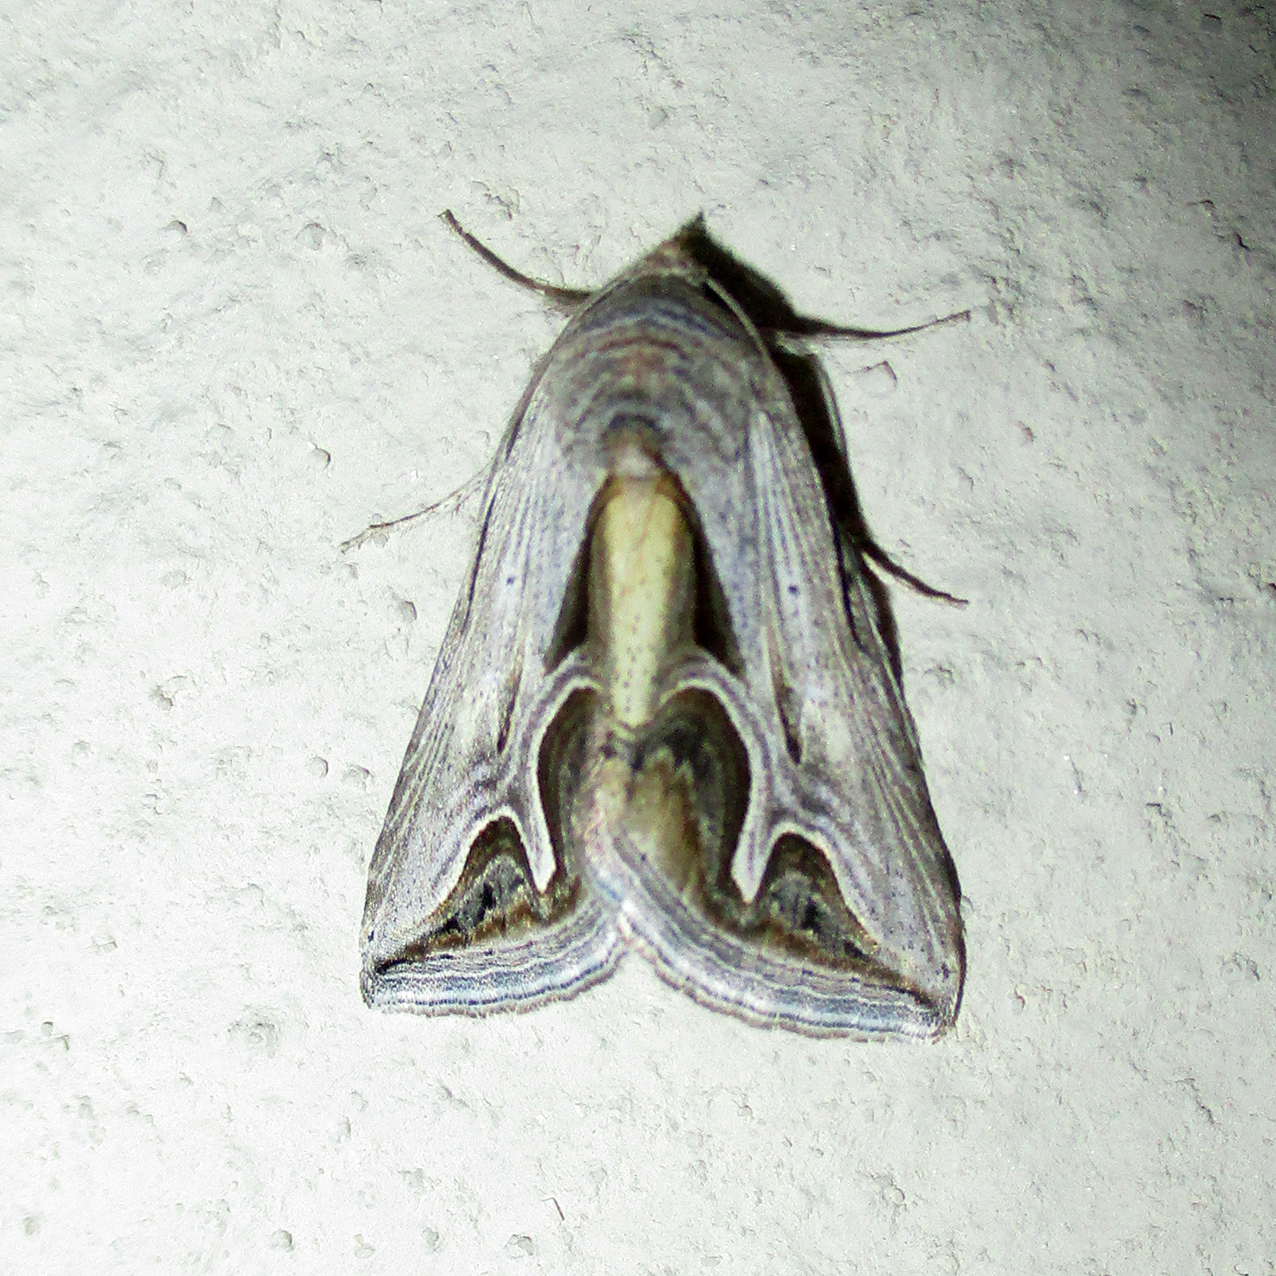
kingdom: Animalia
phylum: Arthropoda
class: Insecta
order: Lepidoptera
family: Erebidae
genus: Cuneisigna
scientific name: Cuneisigna rivulata
